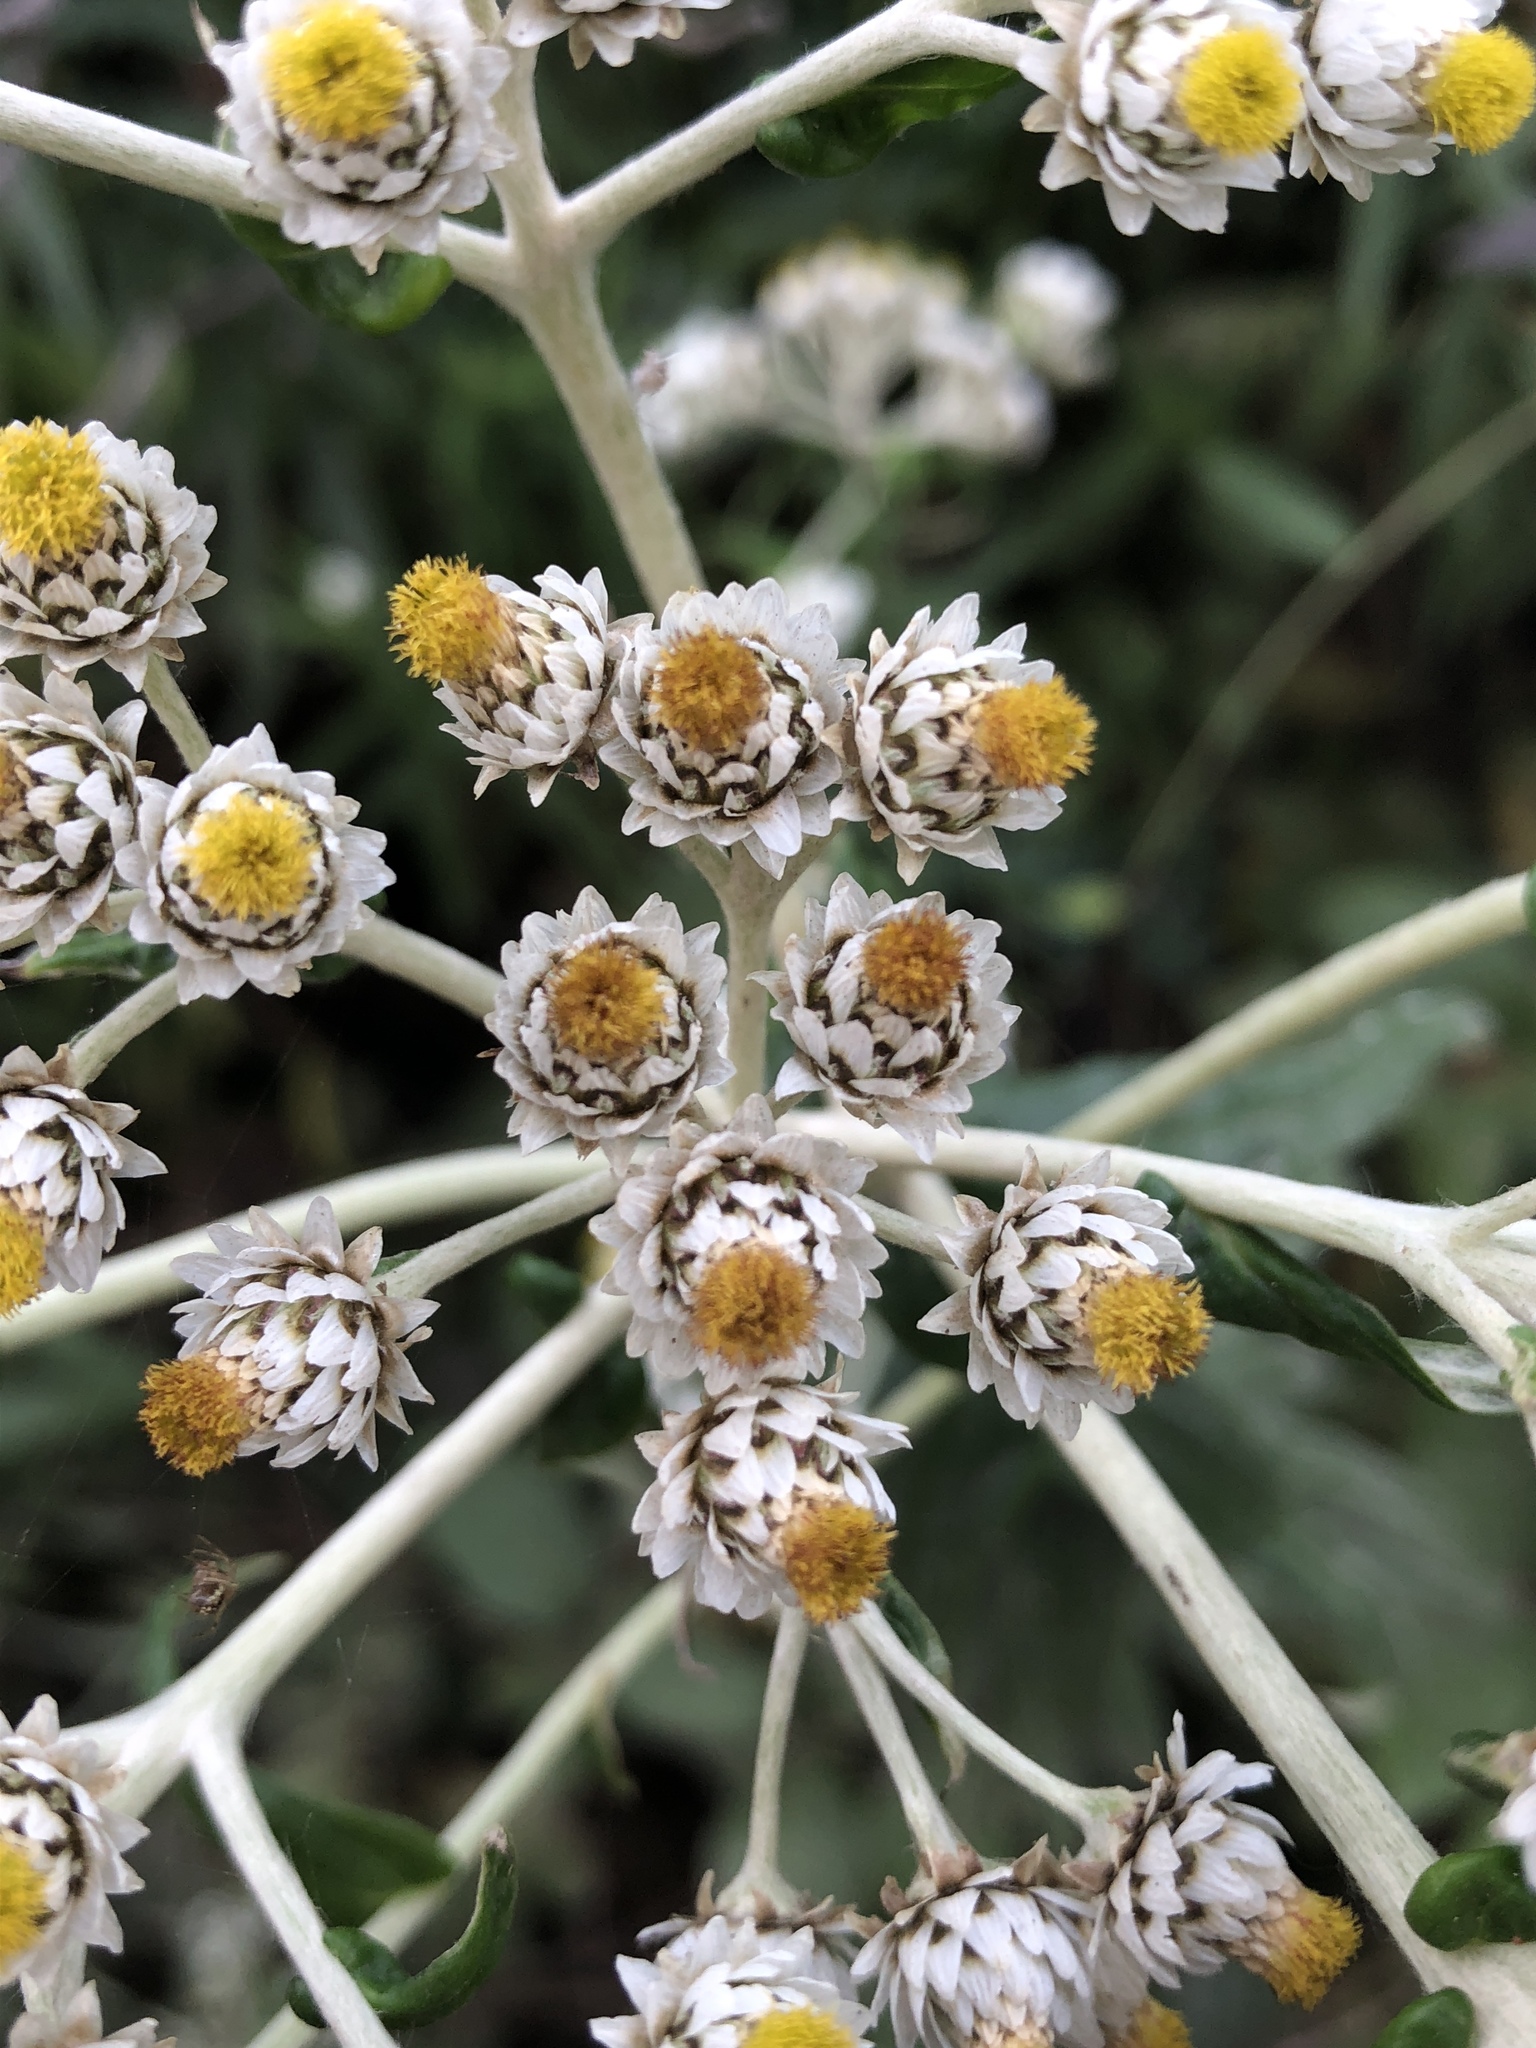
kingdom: Plantae
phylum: Tracheophyta
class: Magnoliopsida
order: Asterales
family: Asteraceae
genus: Anaphalis
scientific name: Anaphalis margaritacea
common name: Pearly everlasting
